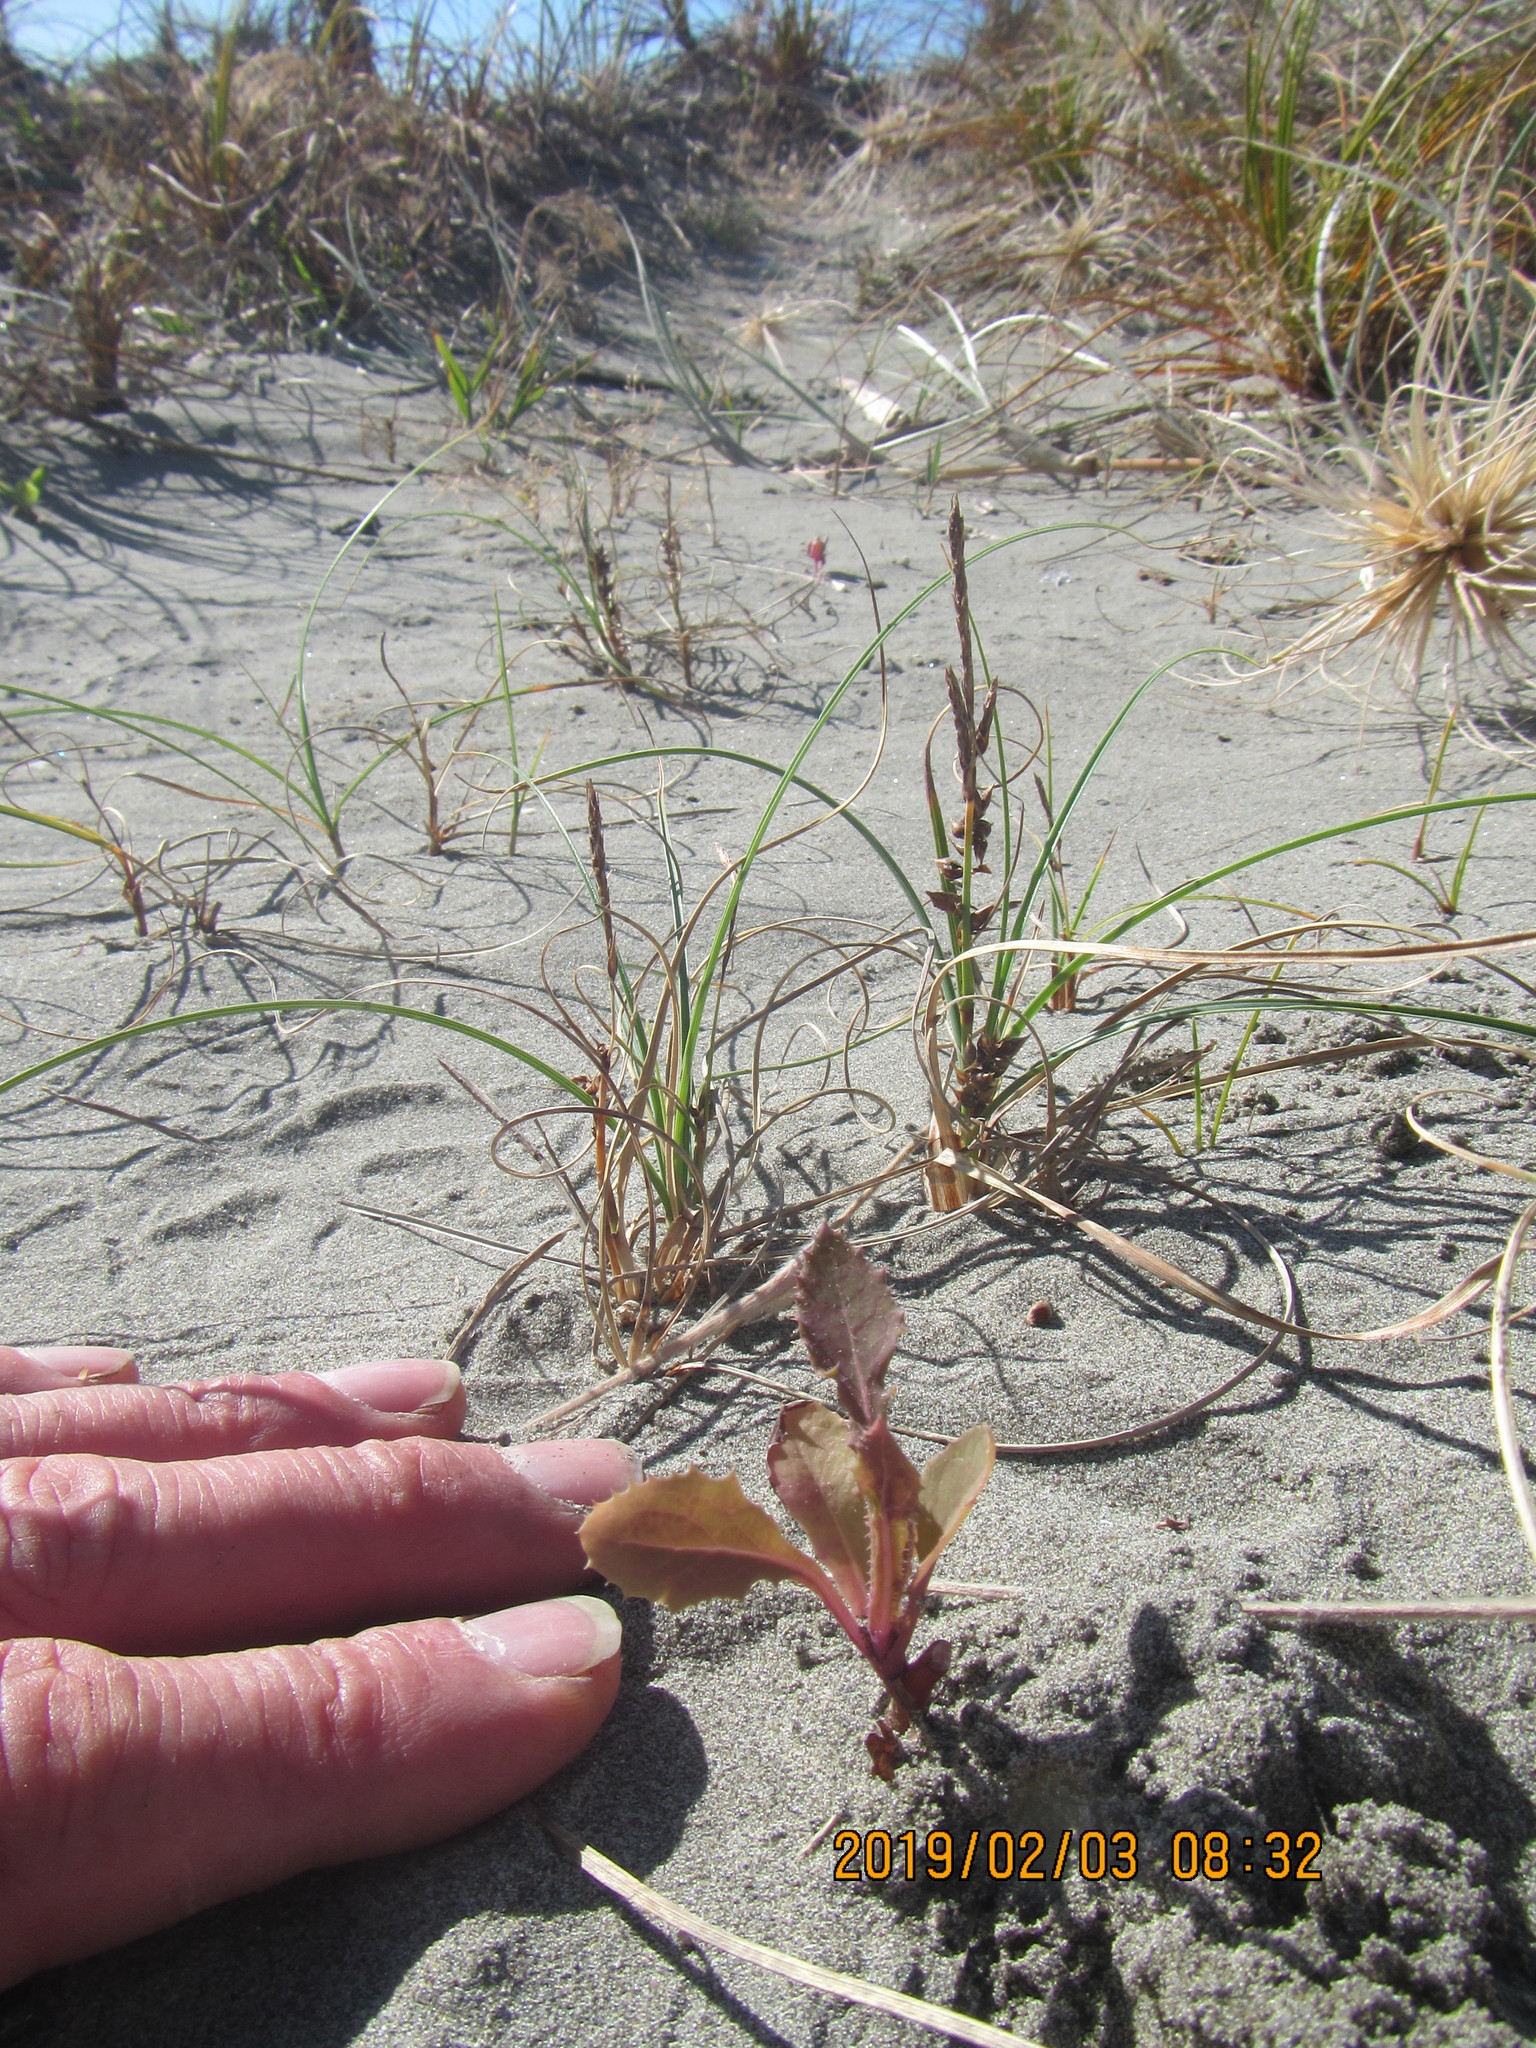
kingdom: Plantae
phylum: Tracheophyta
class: Magnoliopsida
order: Asterales
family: Asteraceae
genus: Sonchus
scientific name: Sonchus oleraceus
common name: Common sowthistle
